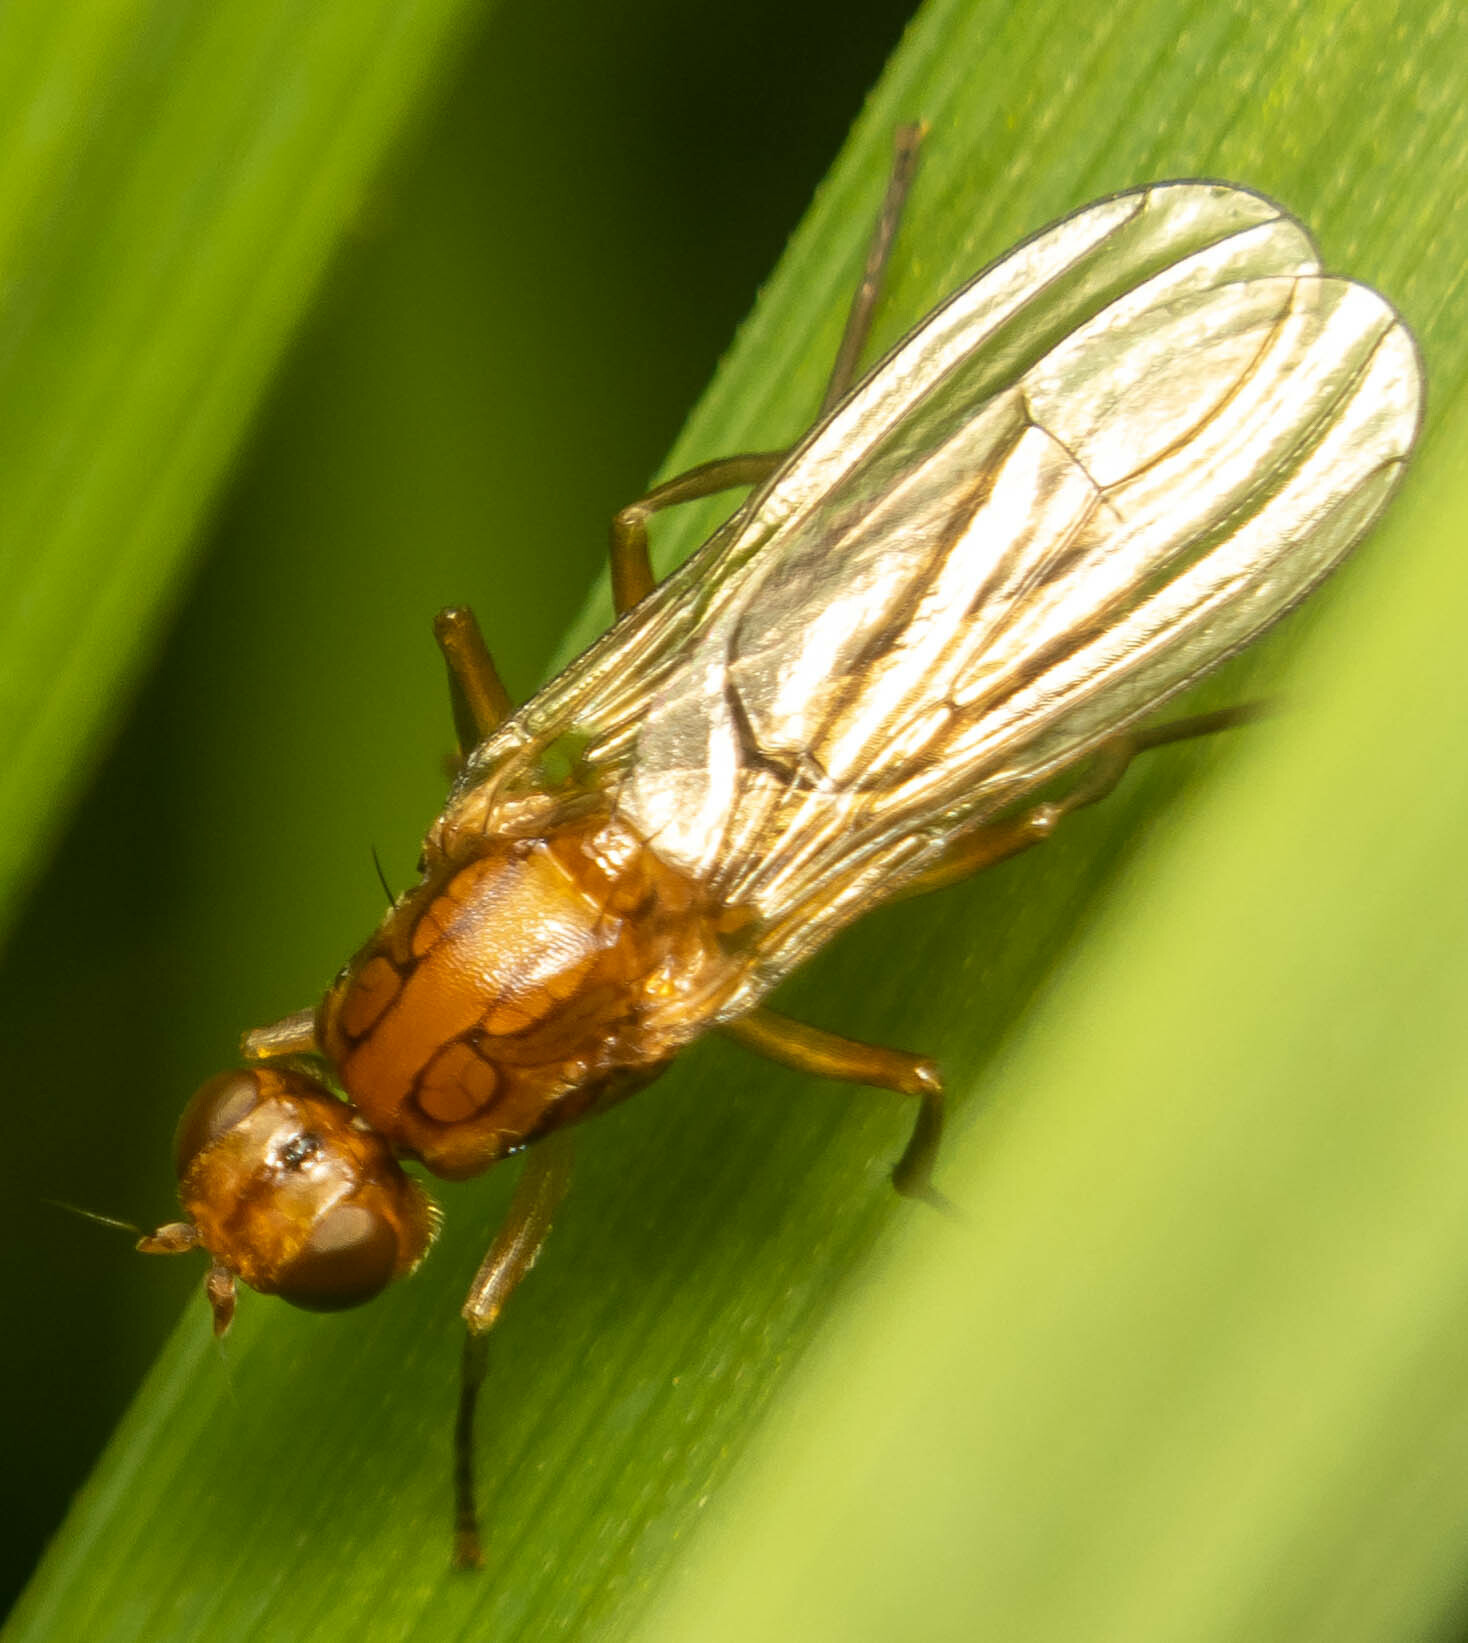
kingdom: Animalia
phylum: Arthropoda
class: Insecta
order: Diptera
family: Psilidae
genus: Psila
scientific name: Psila fimetaria
